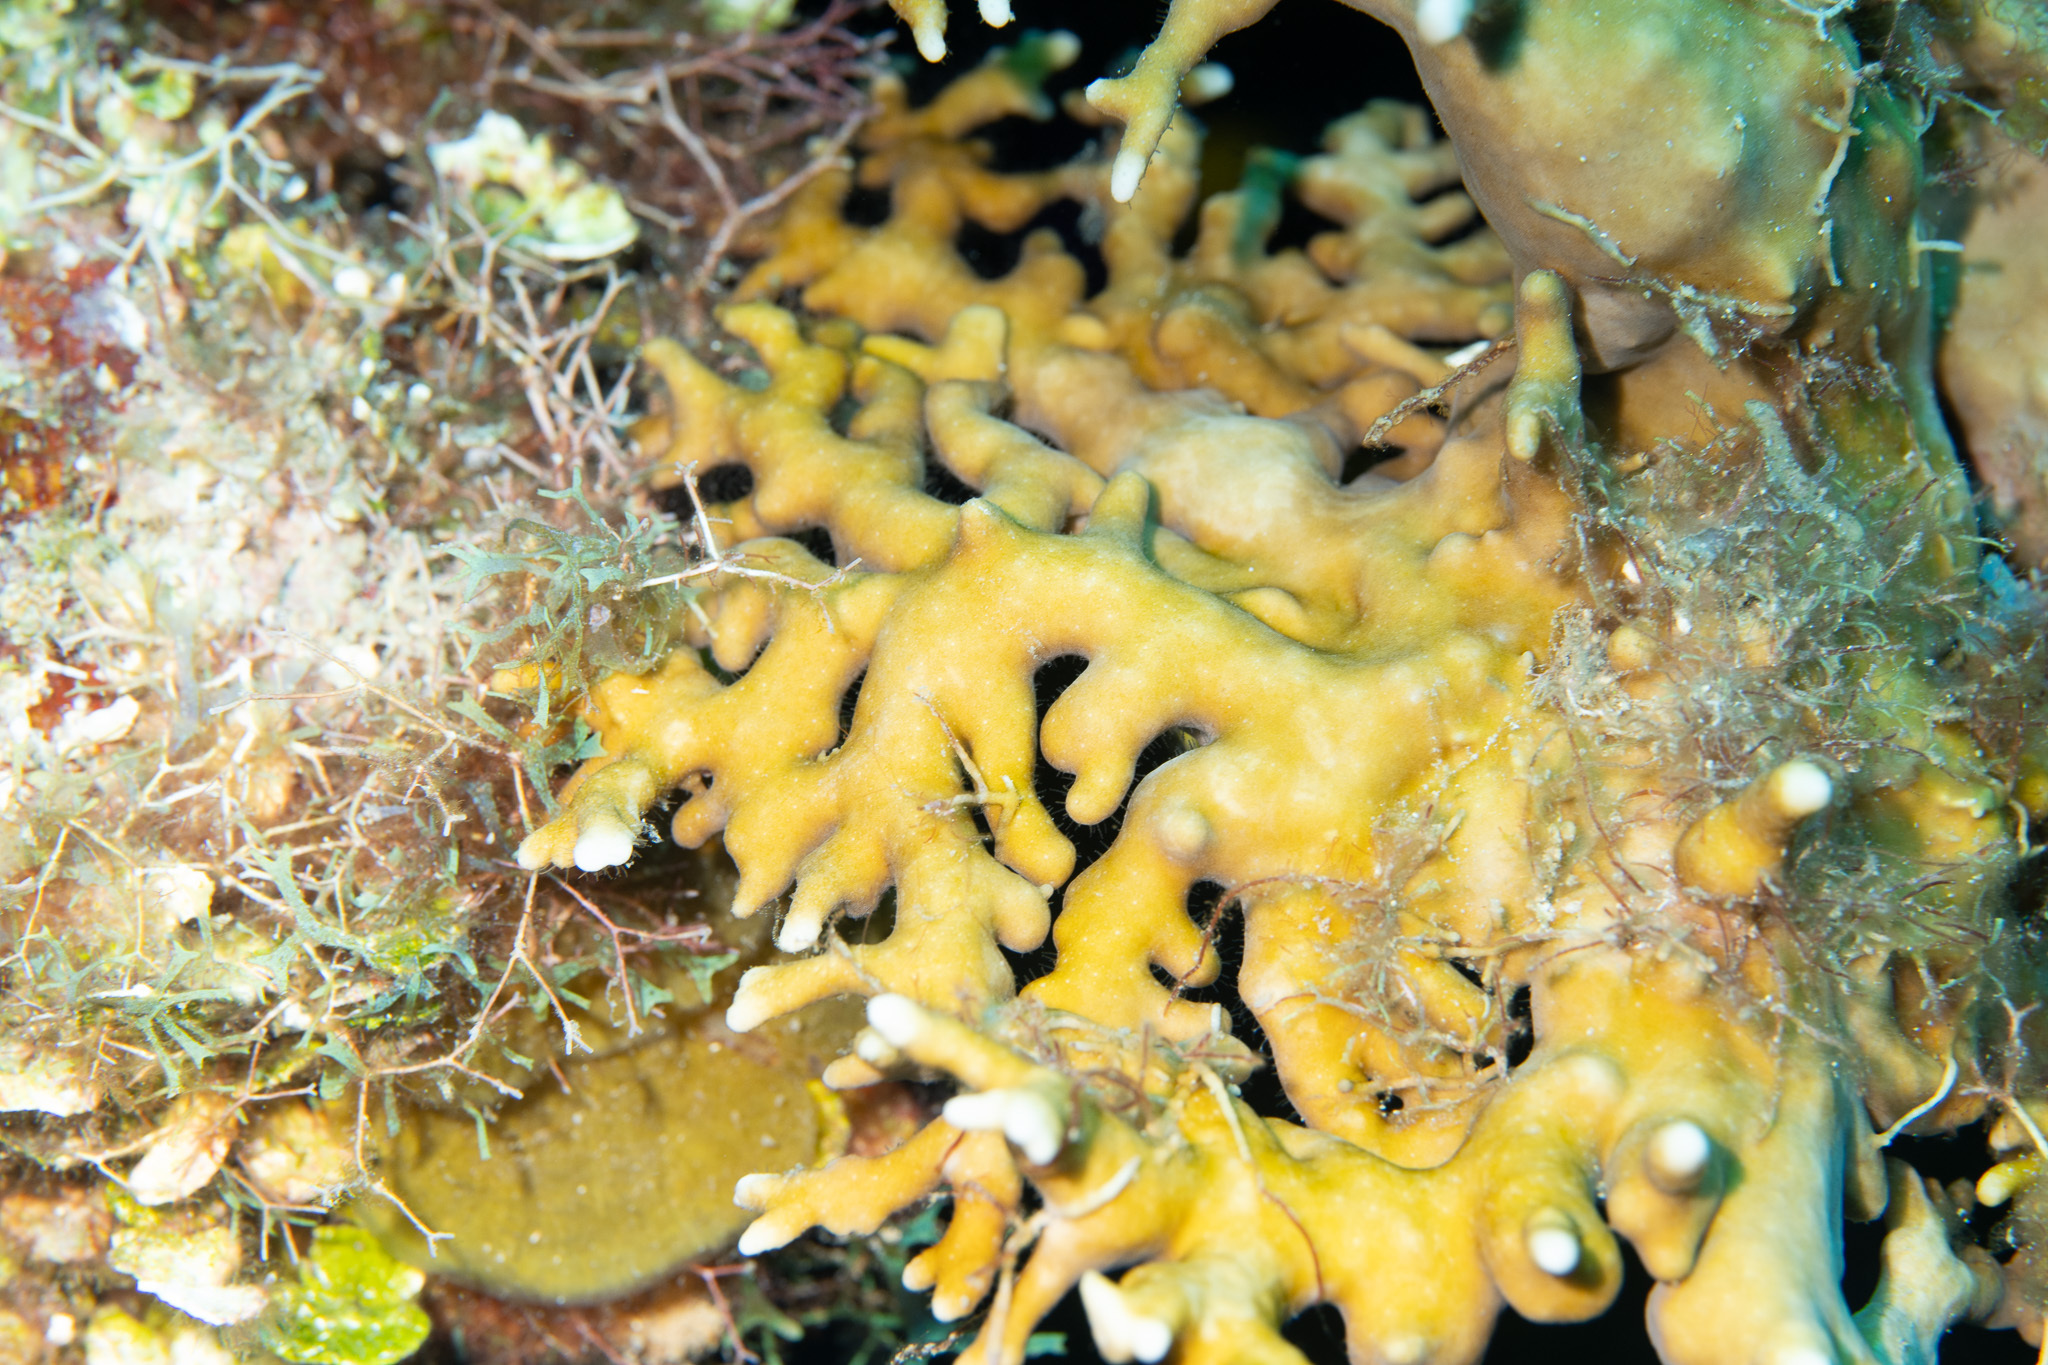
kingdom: Animalia
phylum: Cnidaria
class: Hydrozoa
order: Anthoathecata
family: Milleporidae
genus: Millepora
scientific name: Millepora alcicornis
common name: Branching fire coral
